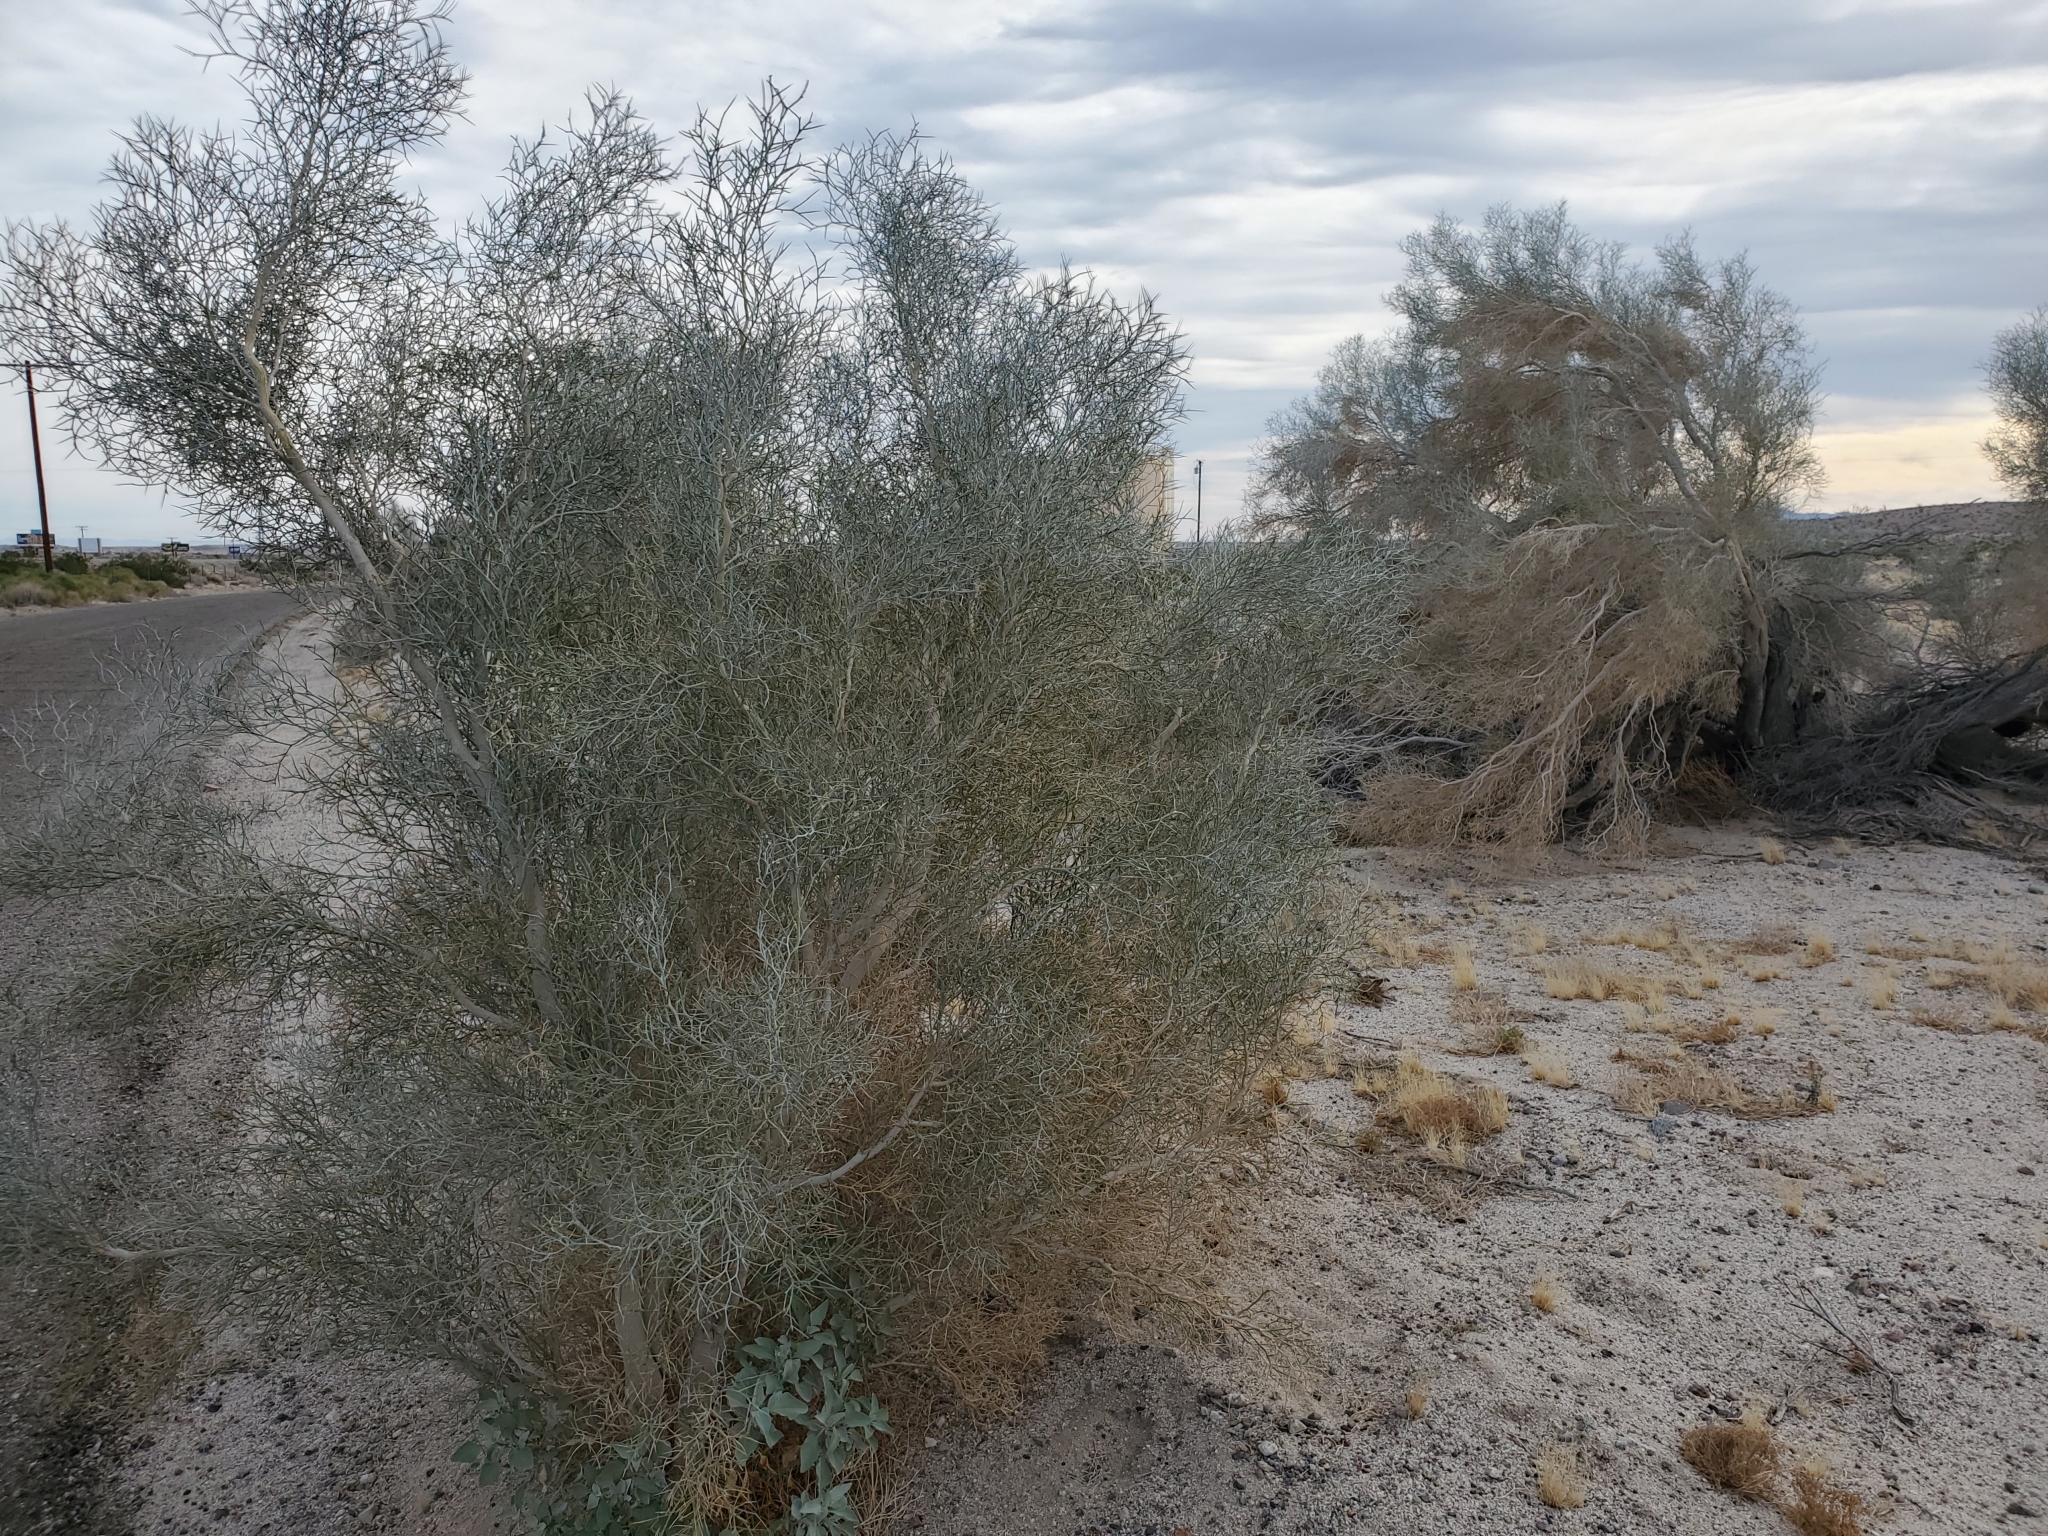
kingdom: Plantae
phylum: Tracheophyta
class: Magnoliopsida
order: Fabales
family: Fabaceae
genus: Psorothamnus
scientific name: Psorothamnus spinosus
